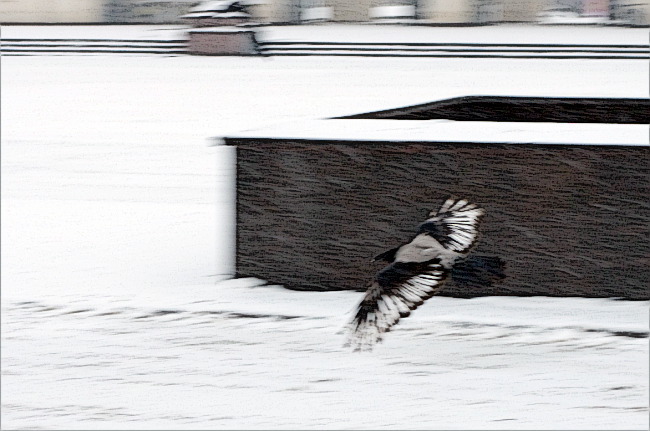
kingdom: Animalia
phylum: Chordata
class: Aves
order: Passeriformes
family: Corvidae
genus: Corvus
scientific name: Corvus cornix
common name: Hooded crow
